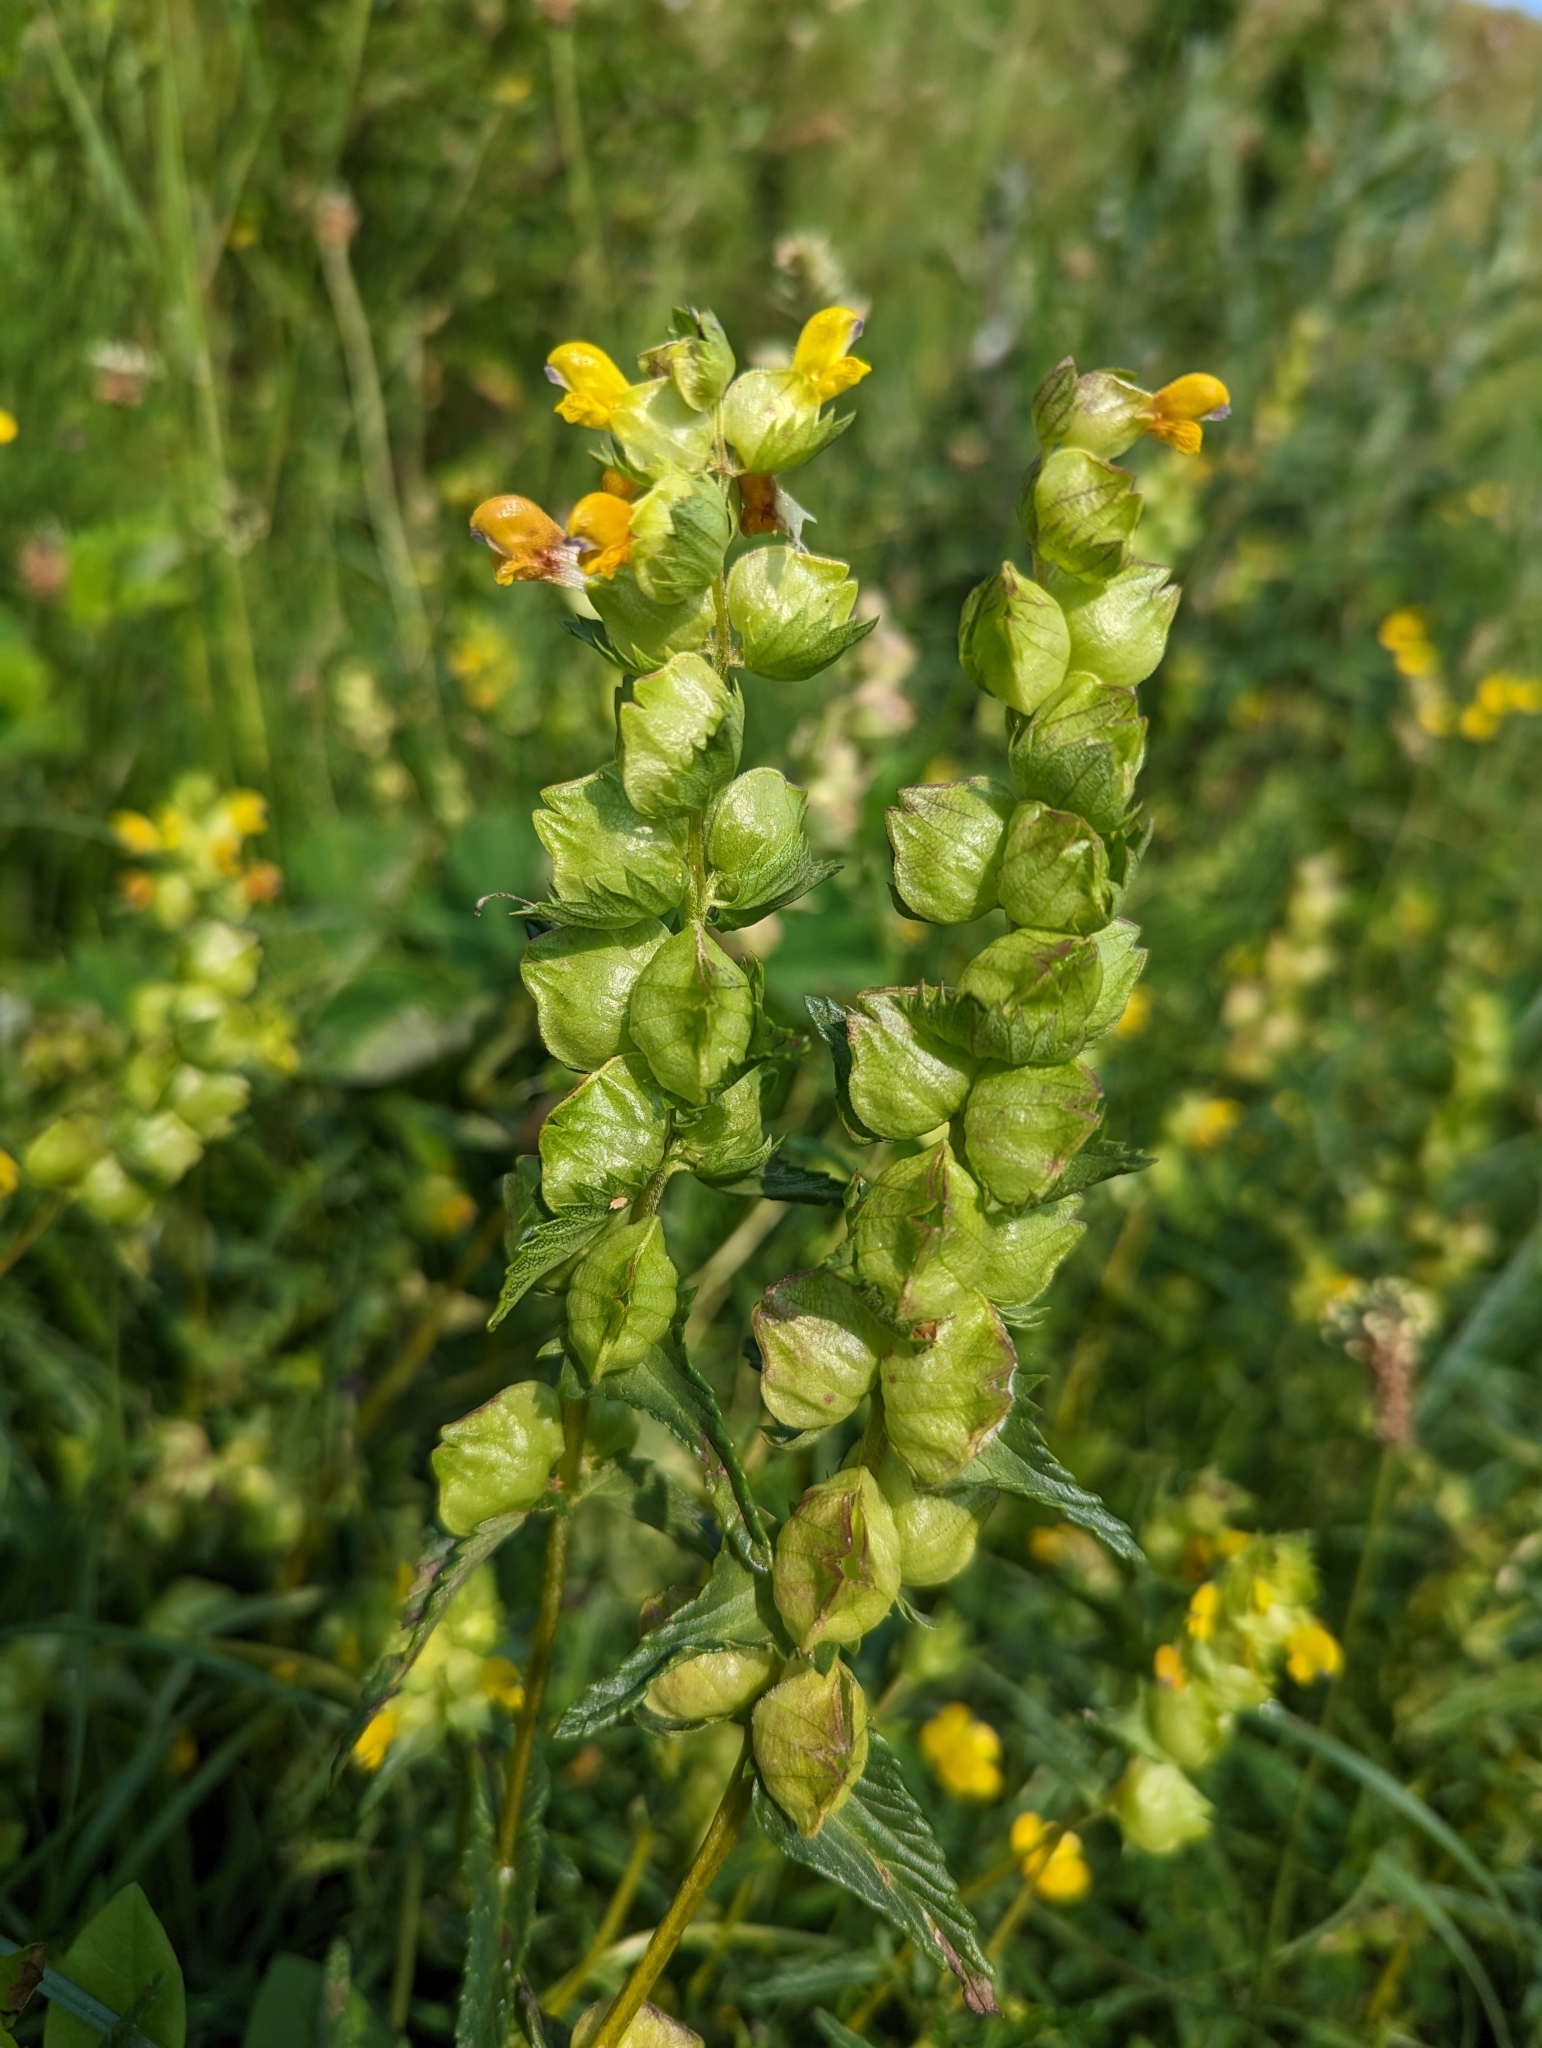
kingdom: Plantae
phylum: Tracheophyta
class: Magnoliopsida
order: Lamiales
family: Orobanchaceae
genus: Rhinanthus
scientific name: Rhinanthus minor
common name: Yellow-rattle
